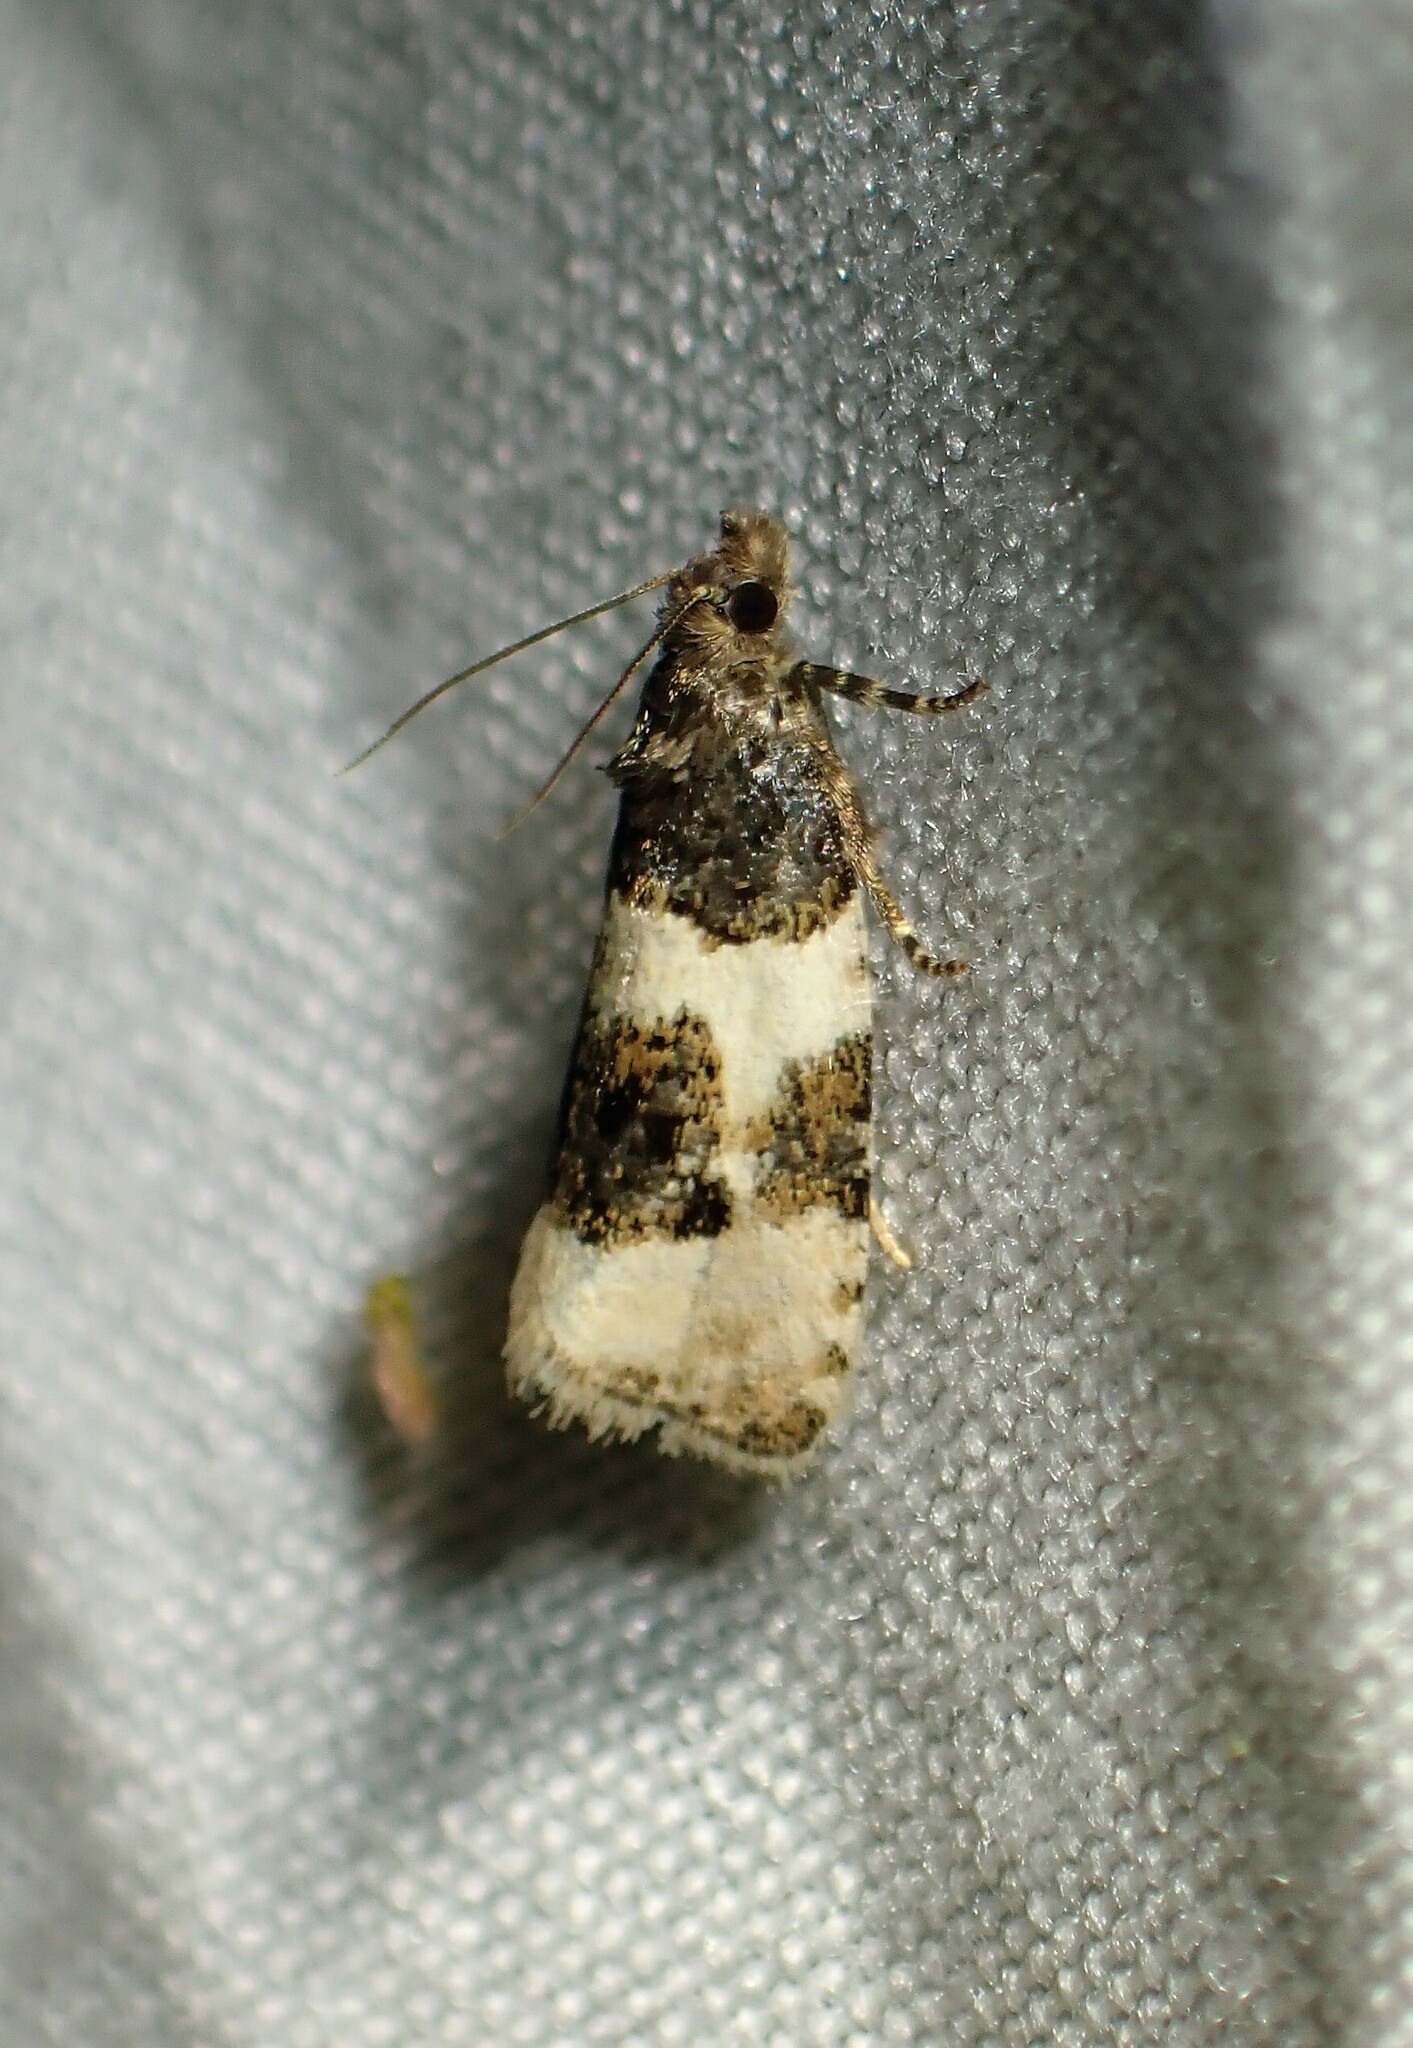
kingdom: Animalia
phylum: Arthropoda
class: Insecta
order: Lepidoptera
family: Tortricidae
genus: Olethreutes
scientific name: Olethreutes bipartitana
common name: Divided olethreutes moth
